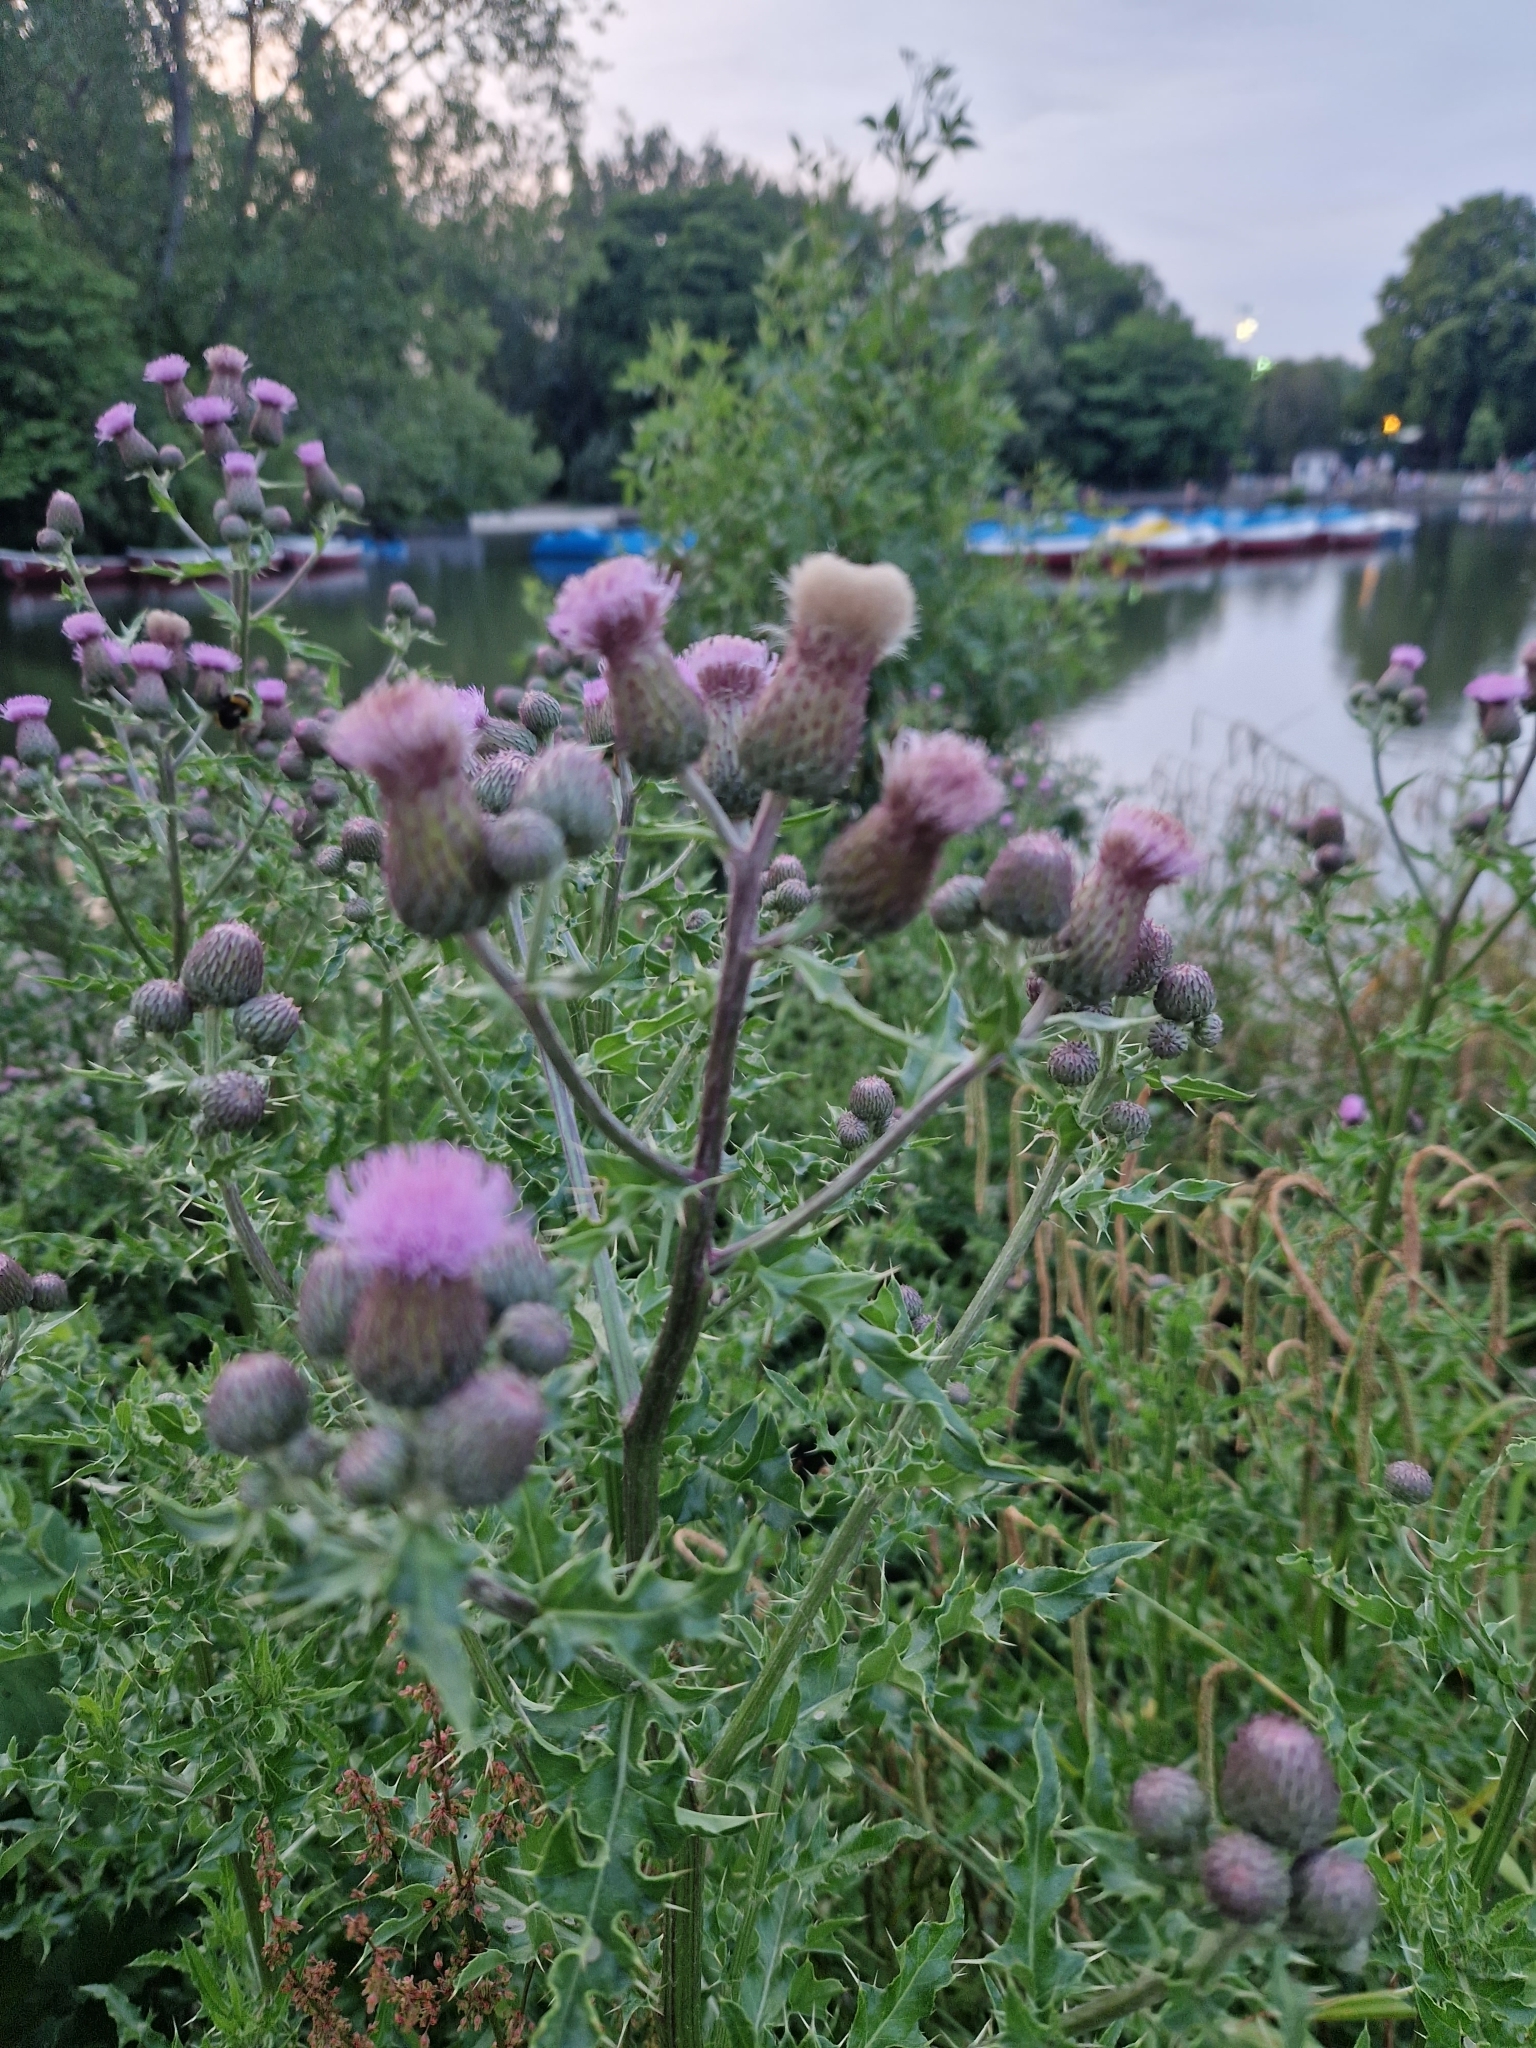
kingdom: Plantae
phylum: Tracheophyta
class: Magnoliopsida
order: Asterales
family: Asteraceae
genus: Cirsium
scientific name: Cirsium arvense
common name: Creeping thistle
